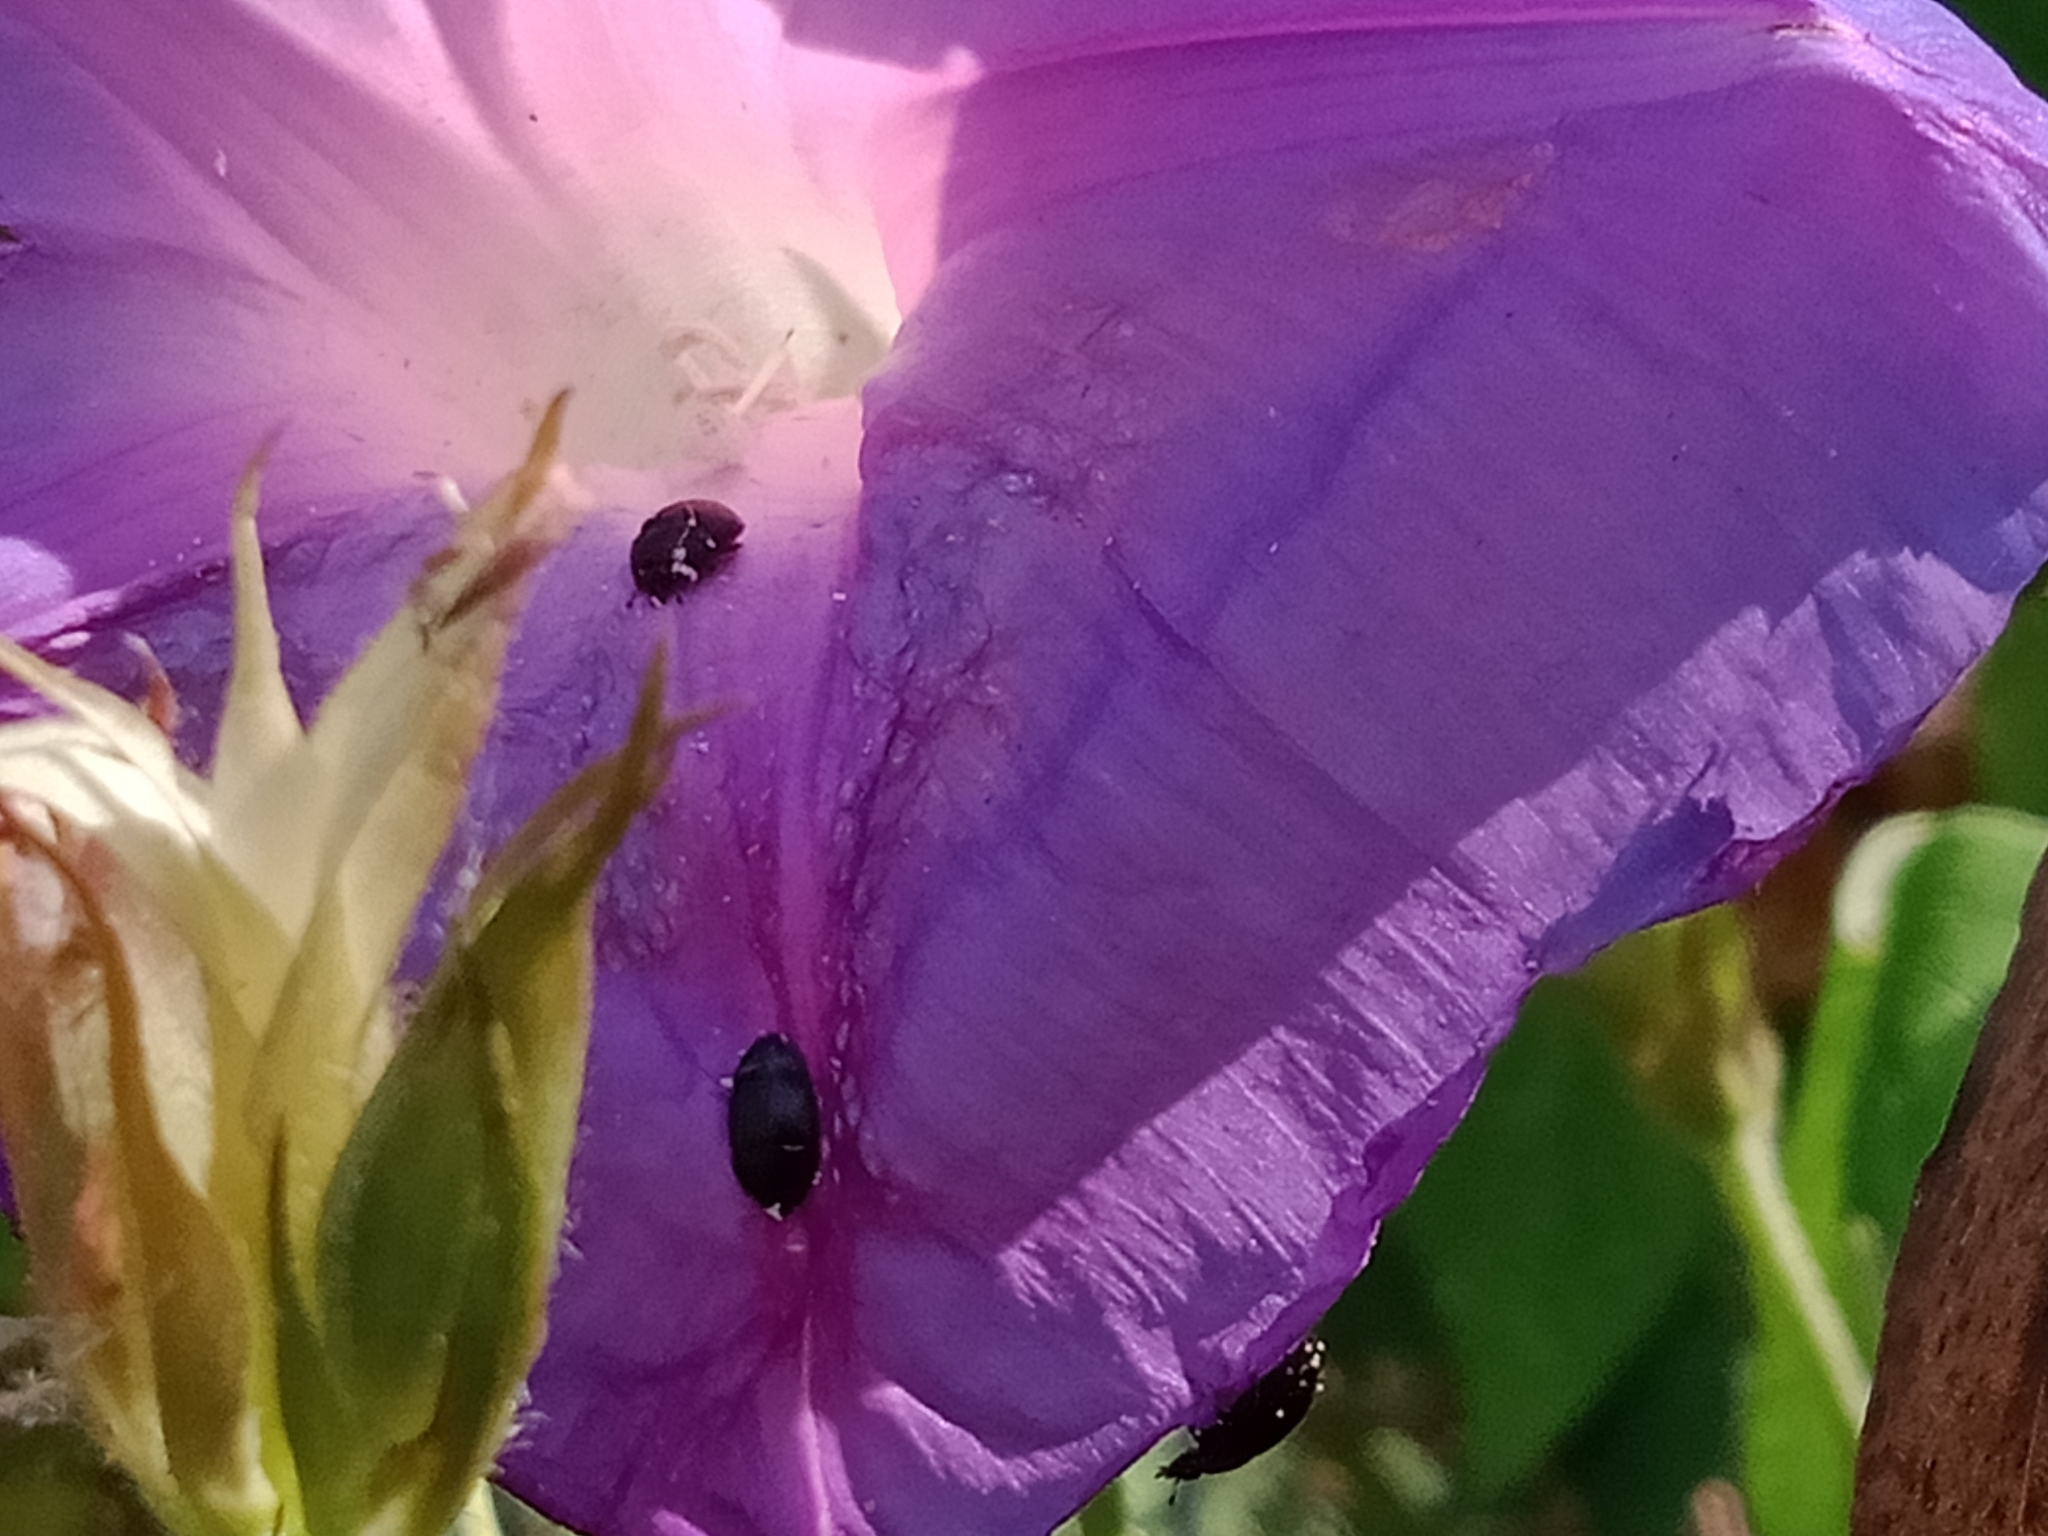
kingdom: Plantae
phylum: Tracheophyta
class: Magnoliopsida
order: Solanales
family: Convolvulaceae
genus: Ipomoea
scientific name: Ipomoea indica
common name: Blue dawnflower
